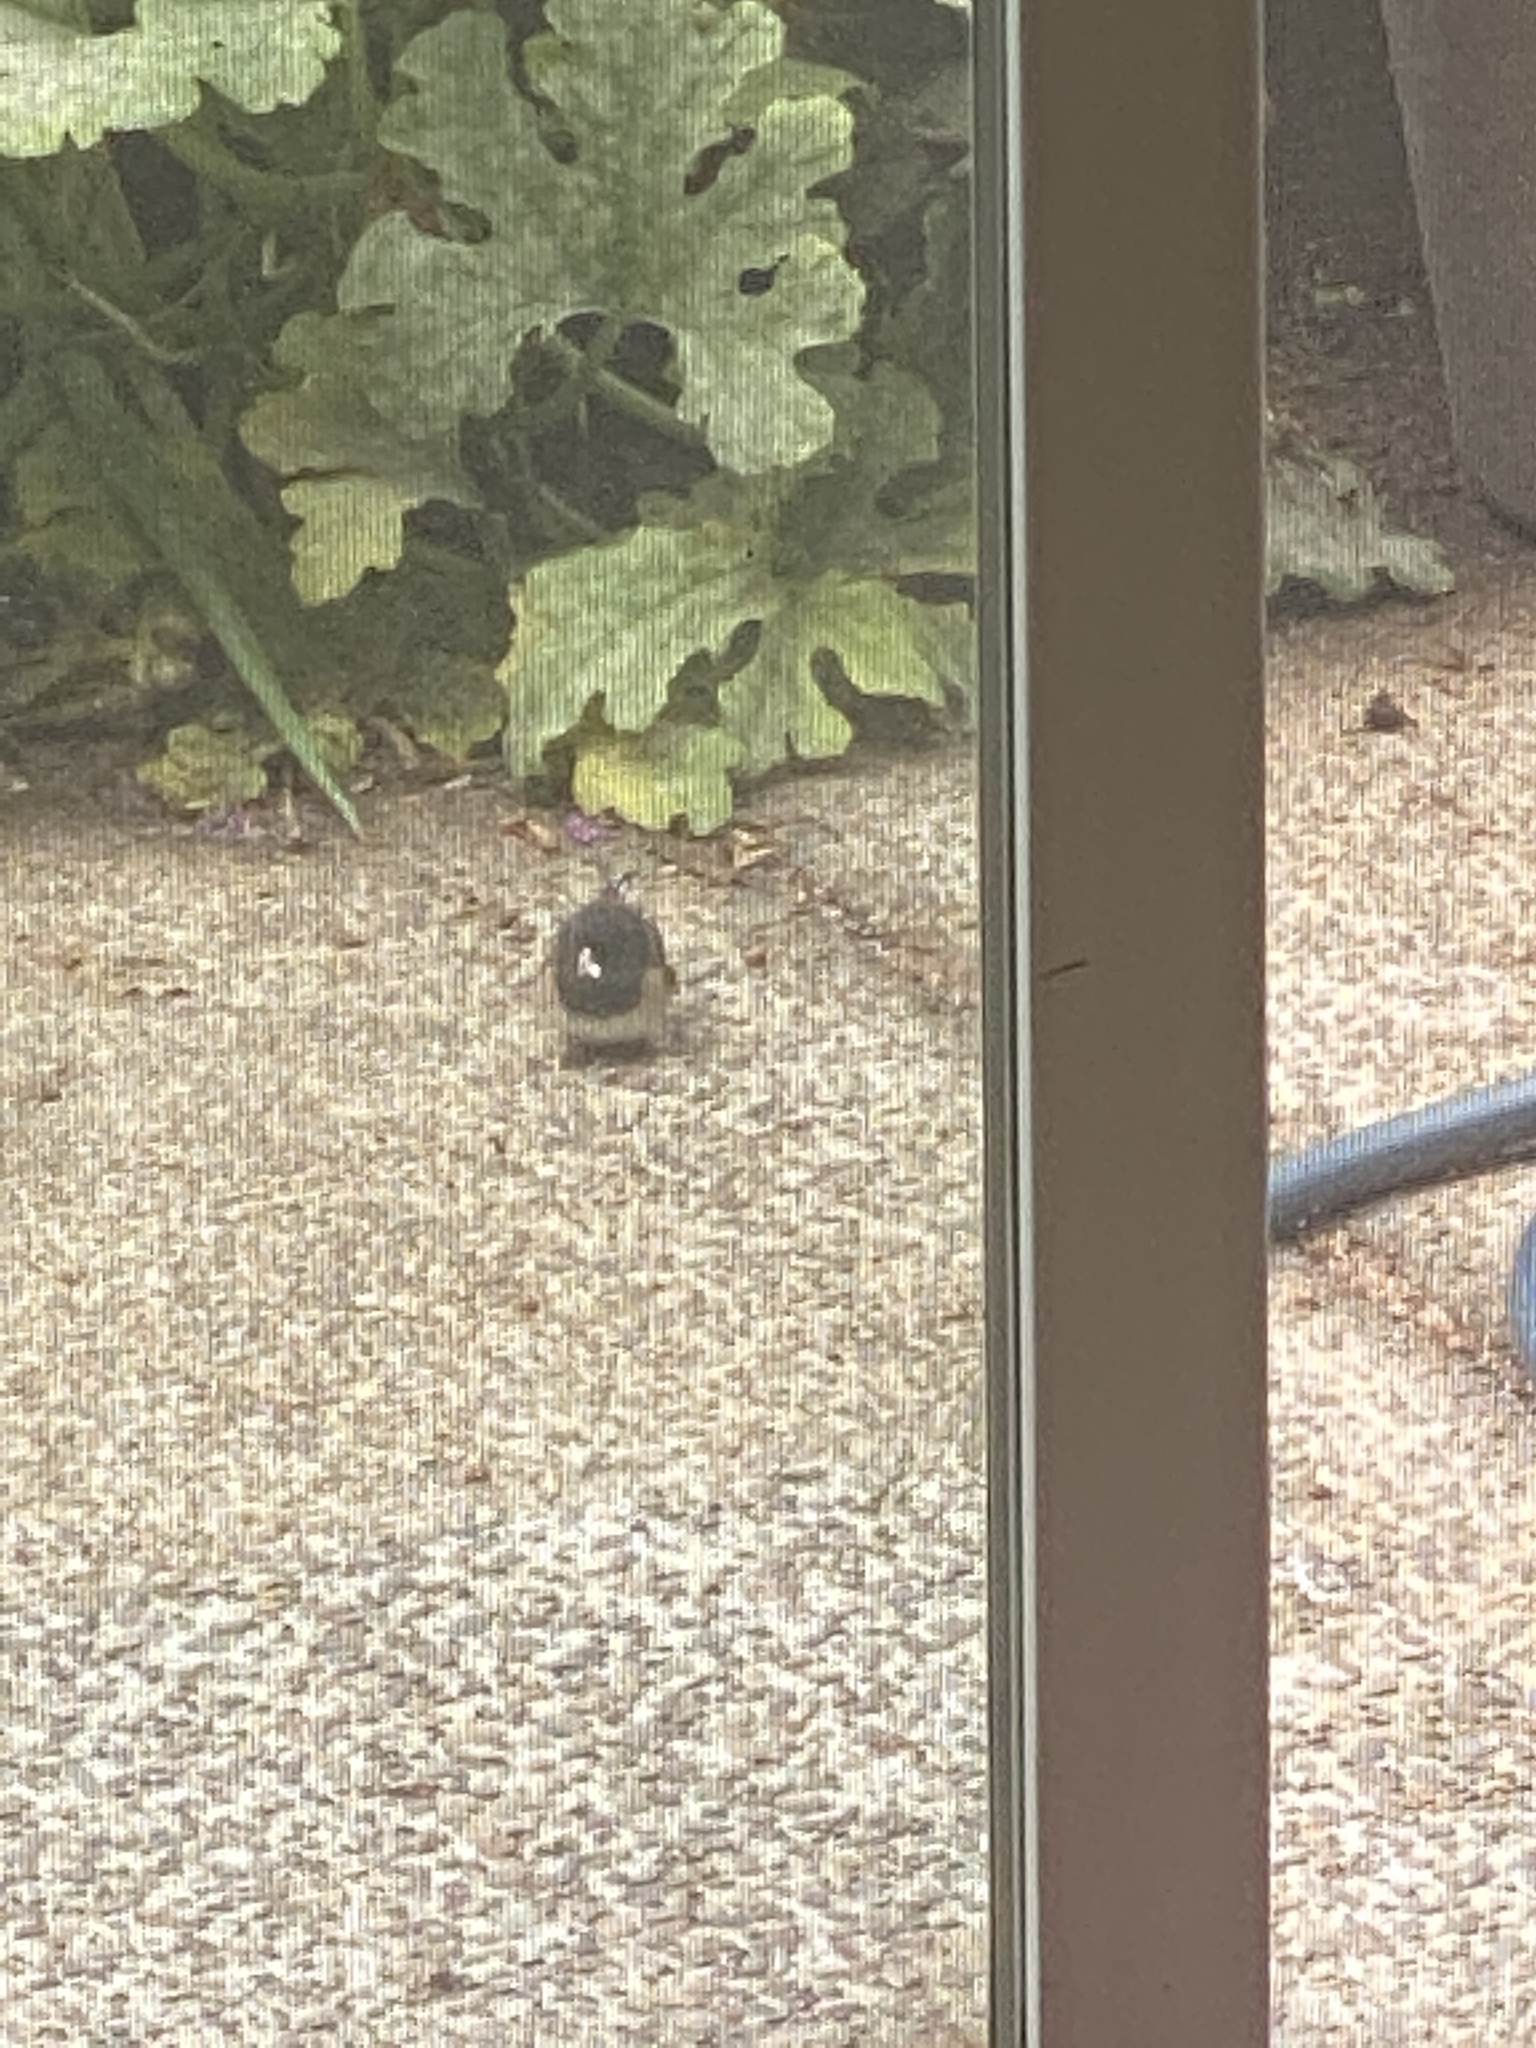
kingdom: Animalia
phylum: Chordata
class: Aves
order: Passeriformes
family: Passerellidae
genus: Junco
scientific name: Junco hyemalis
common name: Dark-eyed junco
